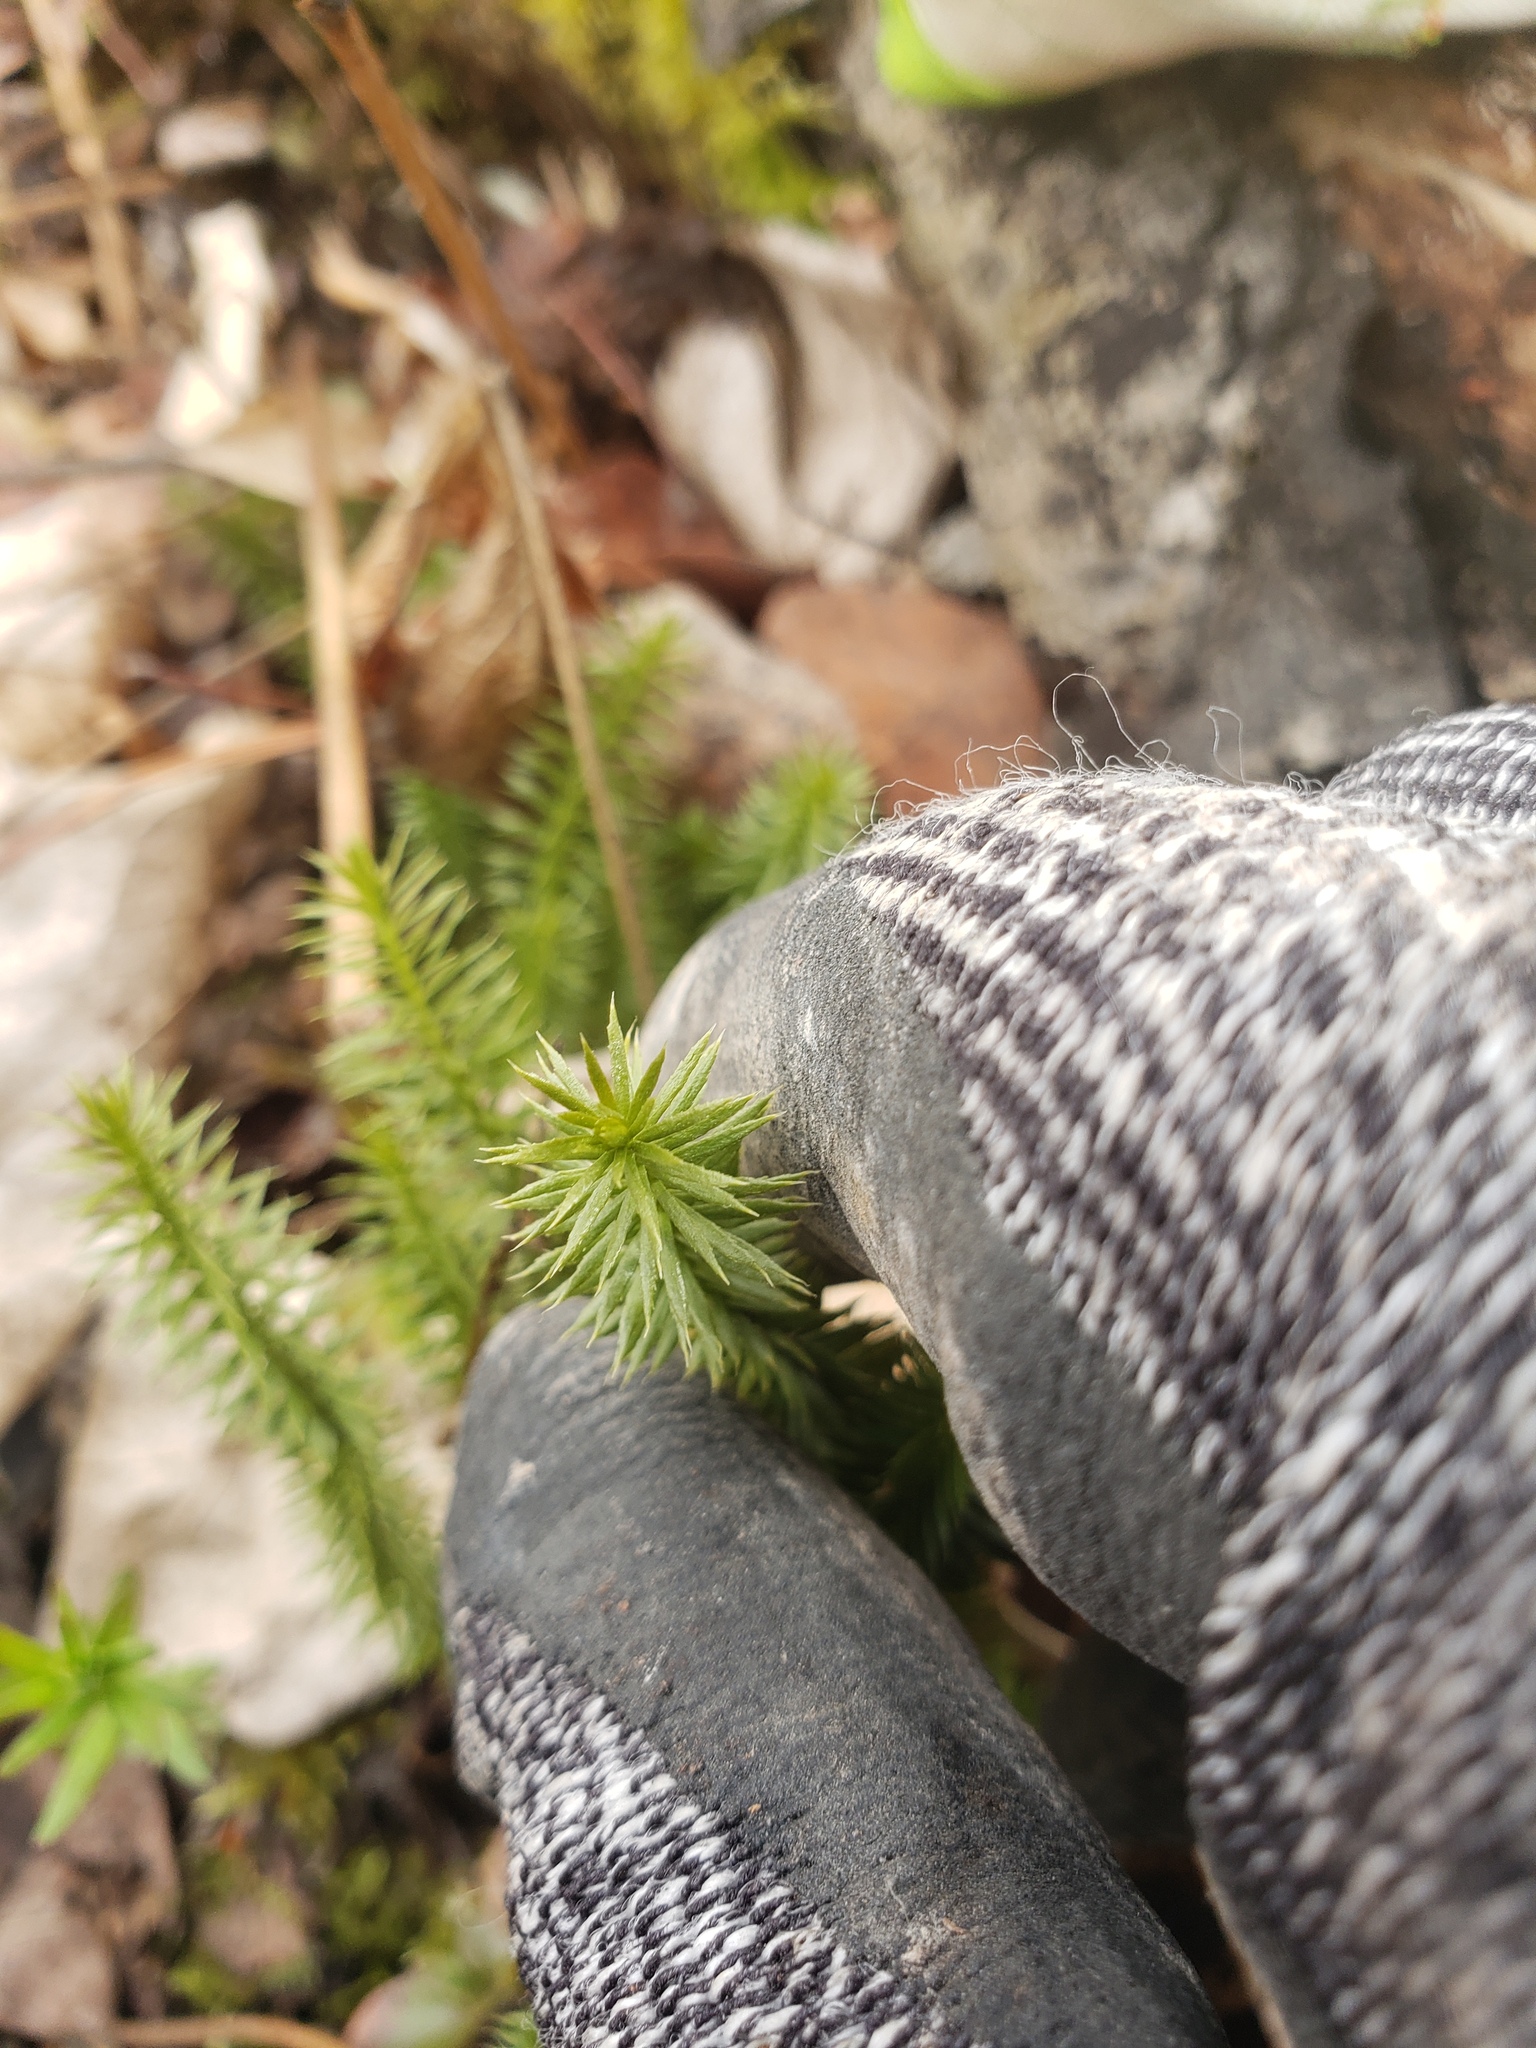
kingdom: Plantae
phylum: Tracheophyta
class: Lycopodiopsida
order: Lycopodiales
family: Lycopodiaceae
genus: Spinulum
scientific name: Spinulum annotinum
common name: Interrupted club-moss
